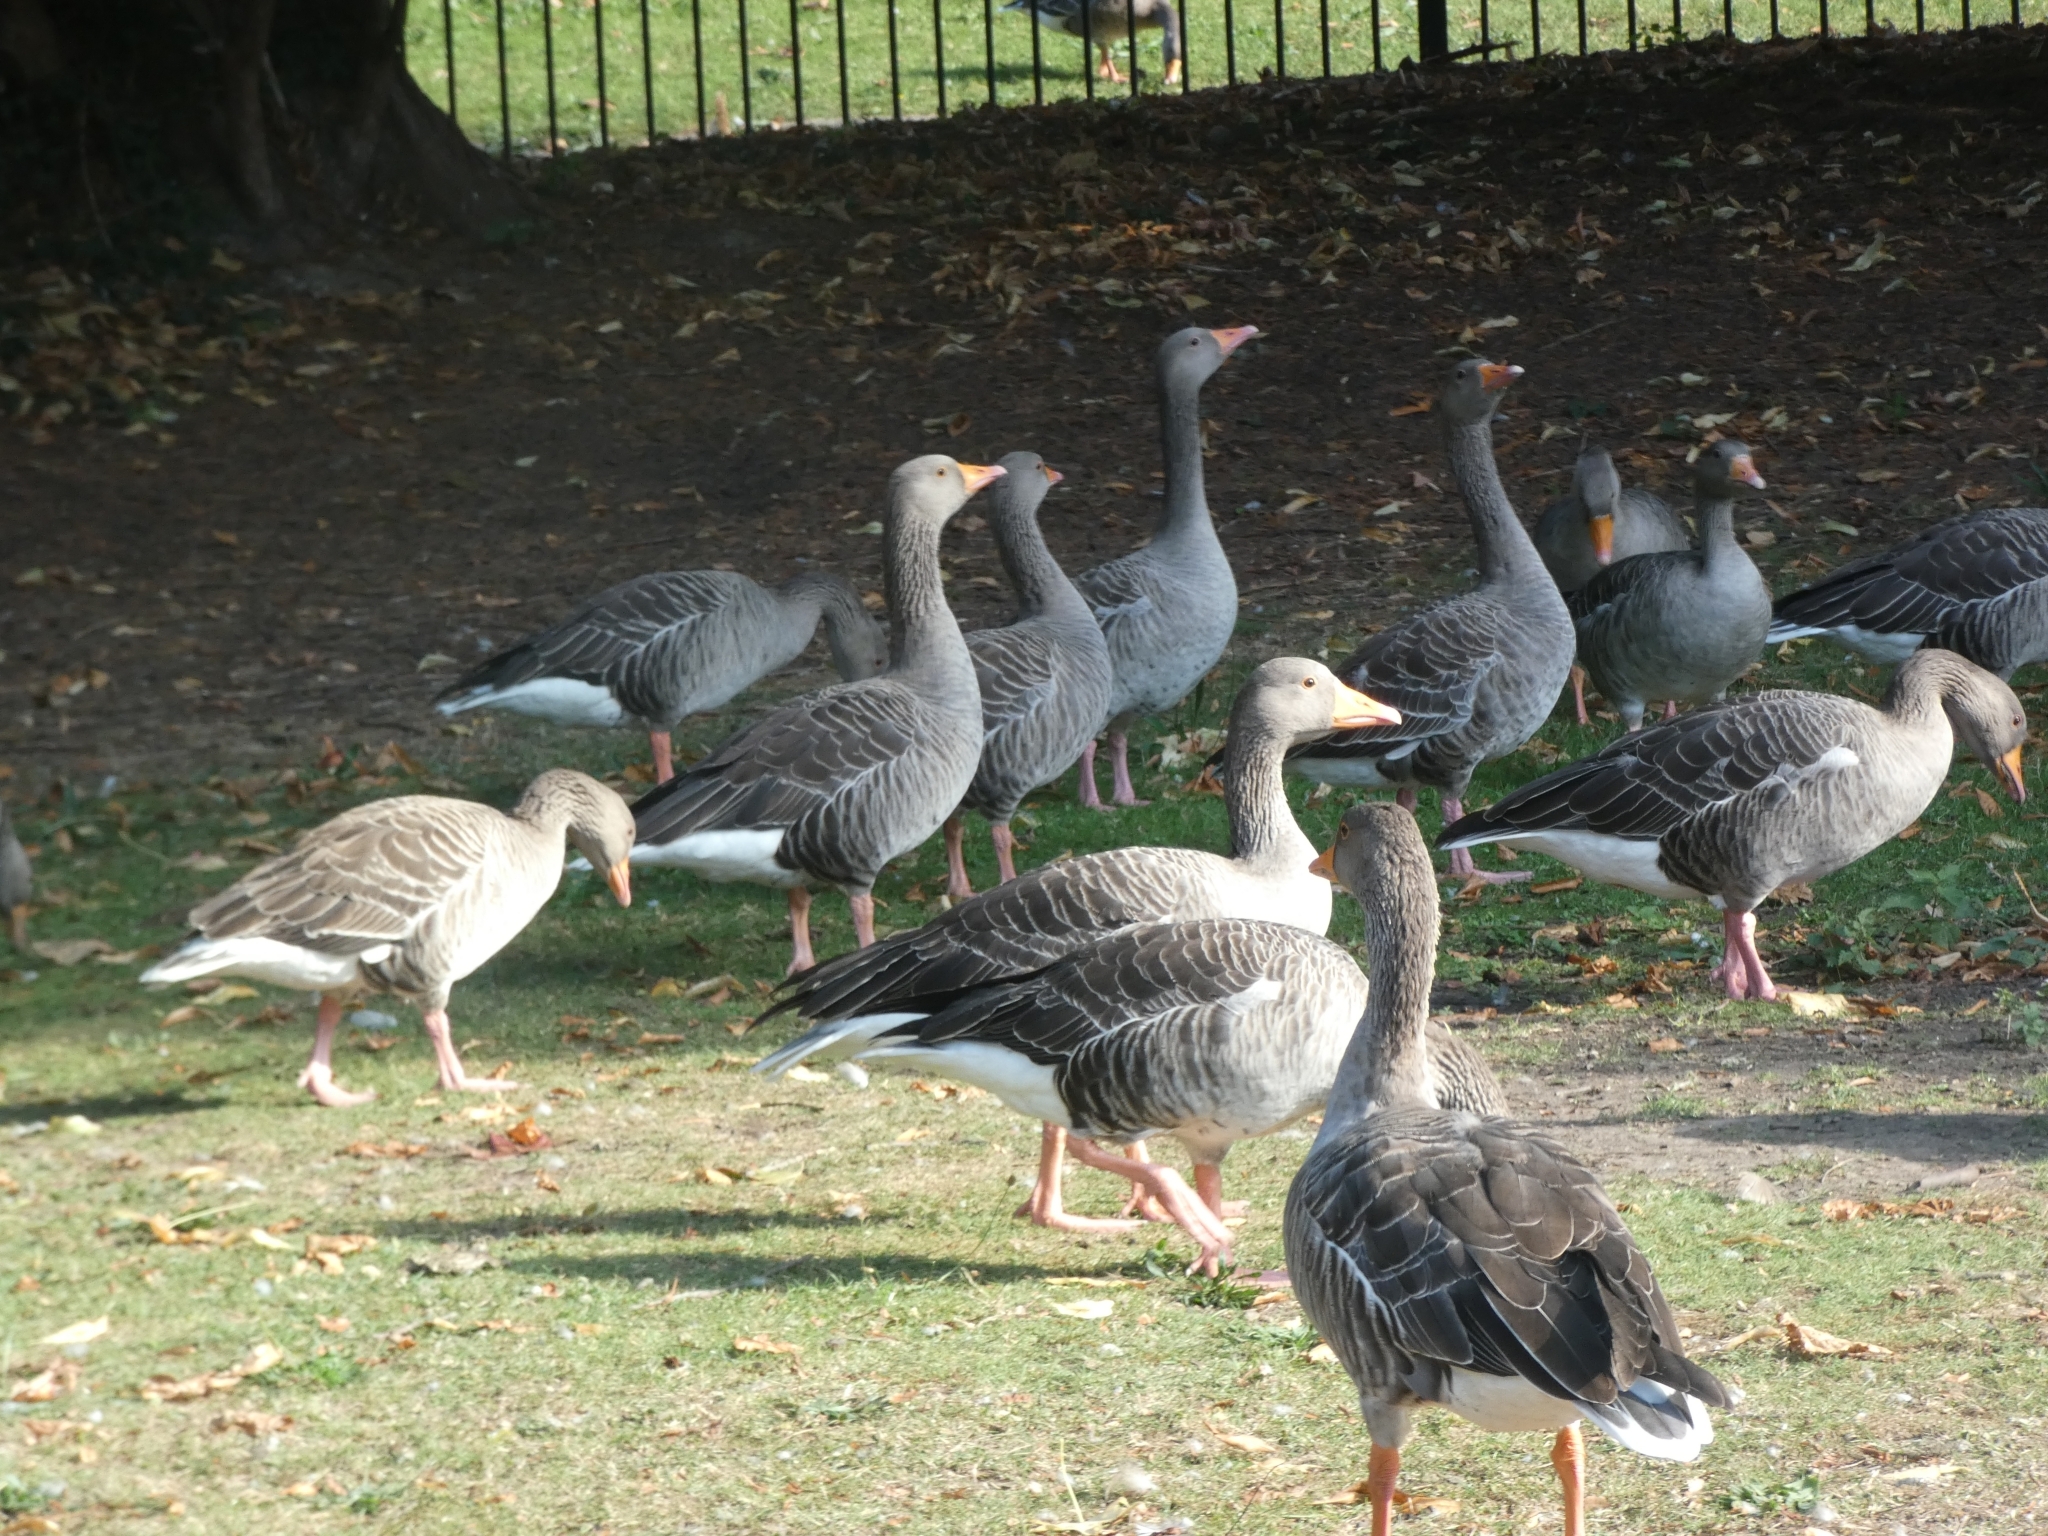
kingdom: Animalia
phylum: Chordata
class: Aves
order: Anseriformes
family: Anatidae
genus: Anser
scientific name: Anser anser
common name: Greylag goose
